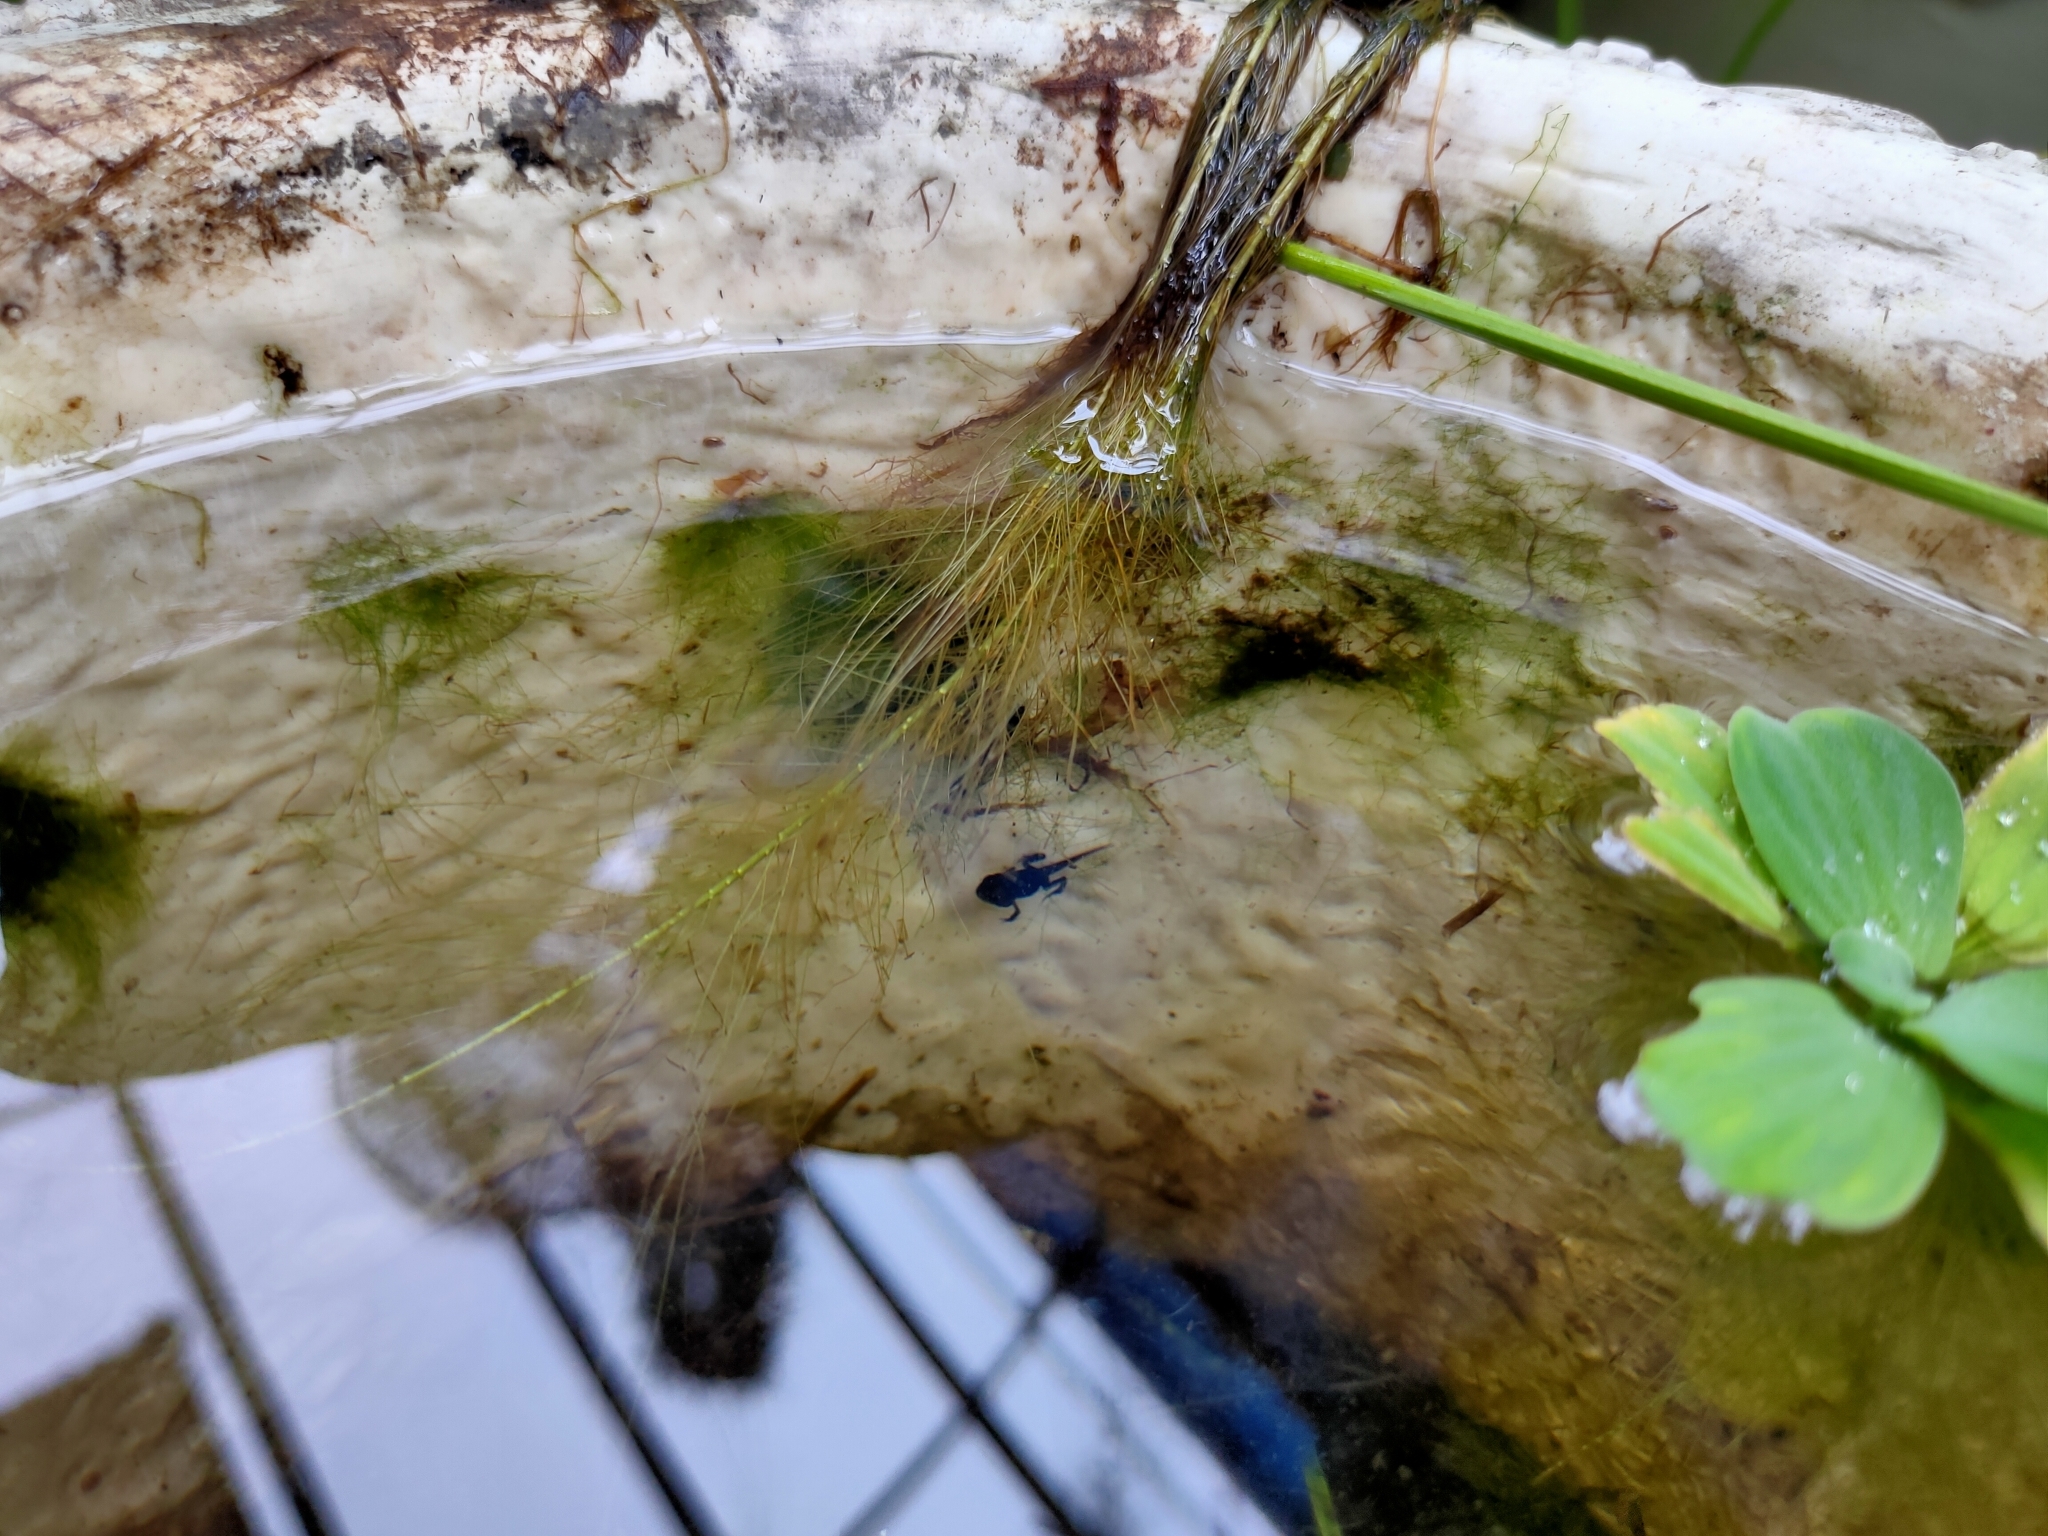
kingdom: Animalia
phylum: Chordata
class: Amphibia
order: Anura
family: Bufonidae
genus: Duttaphrynus
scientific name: Duttaphrynus melanostictus
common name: Common sunda toad
